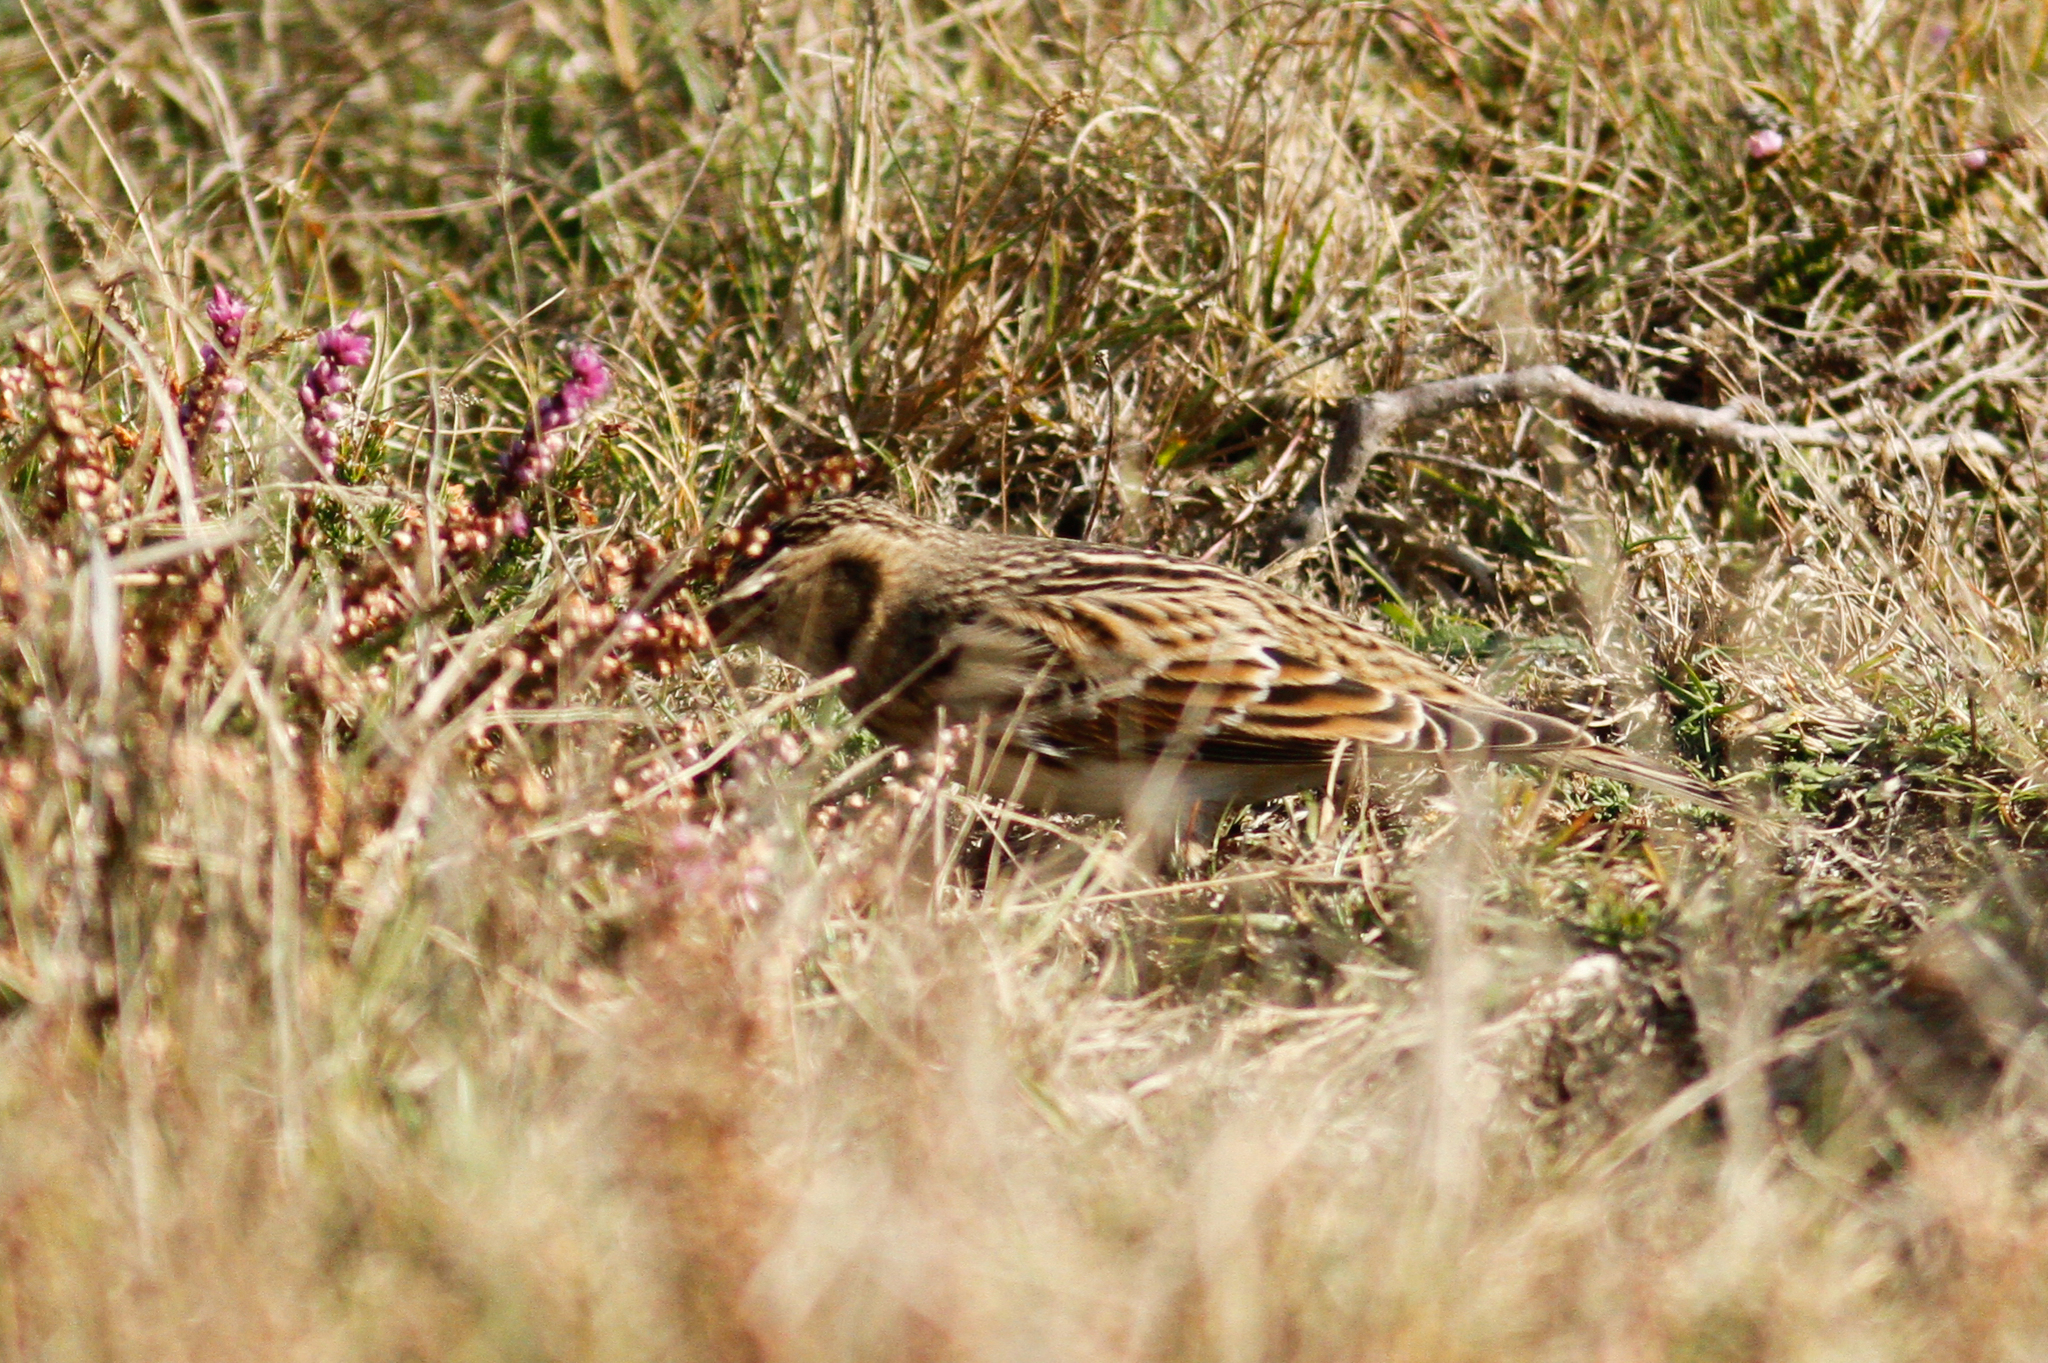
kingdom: Animalia
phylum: Chordata
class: Aves
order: Passeriformes
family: Calcariidae
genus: Calcarius
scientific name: Calcarius lapponicus
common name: Lapland longspur
